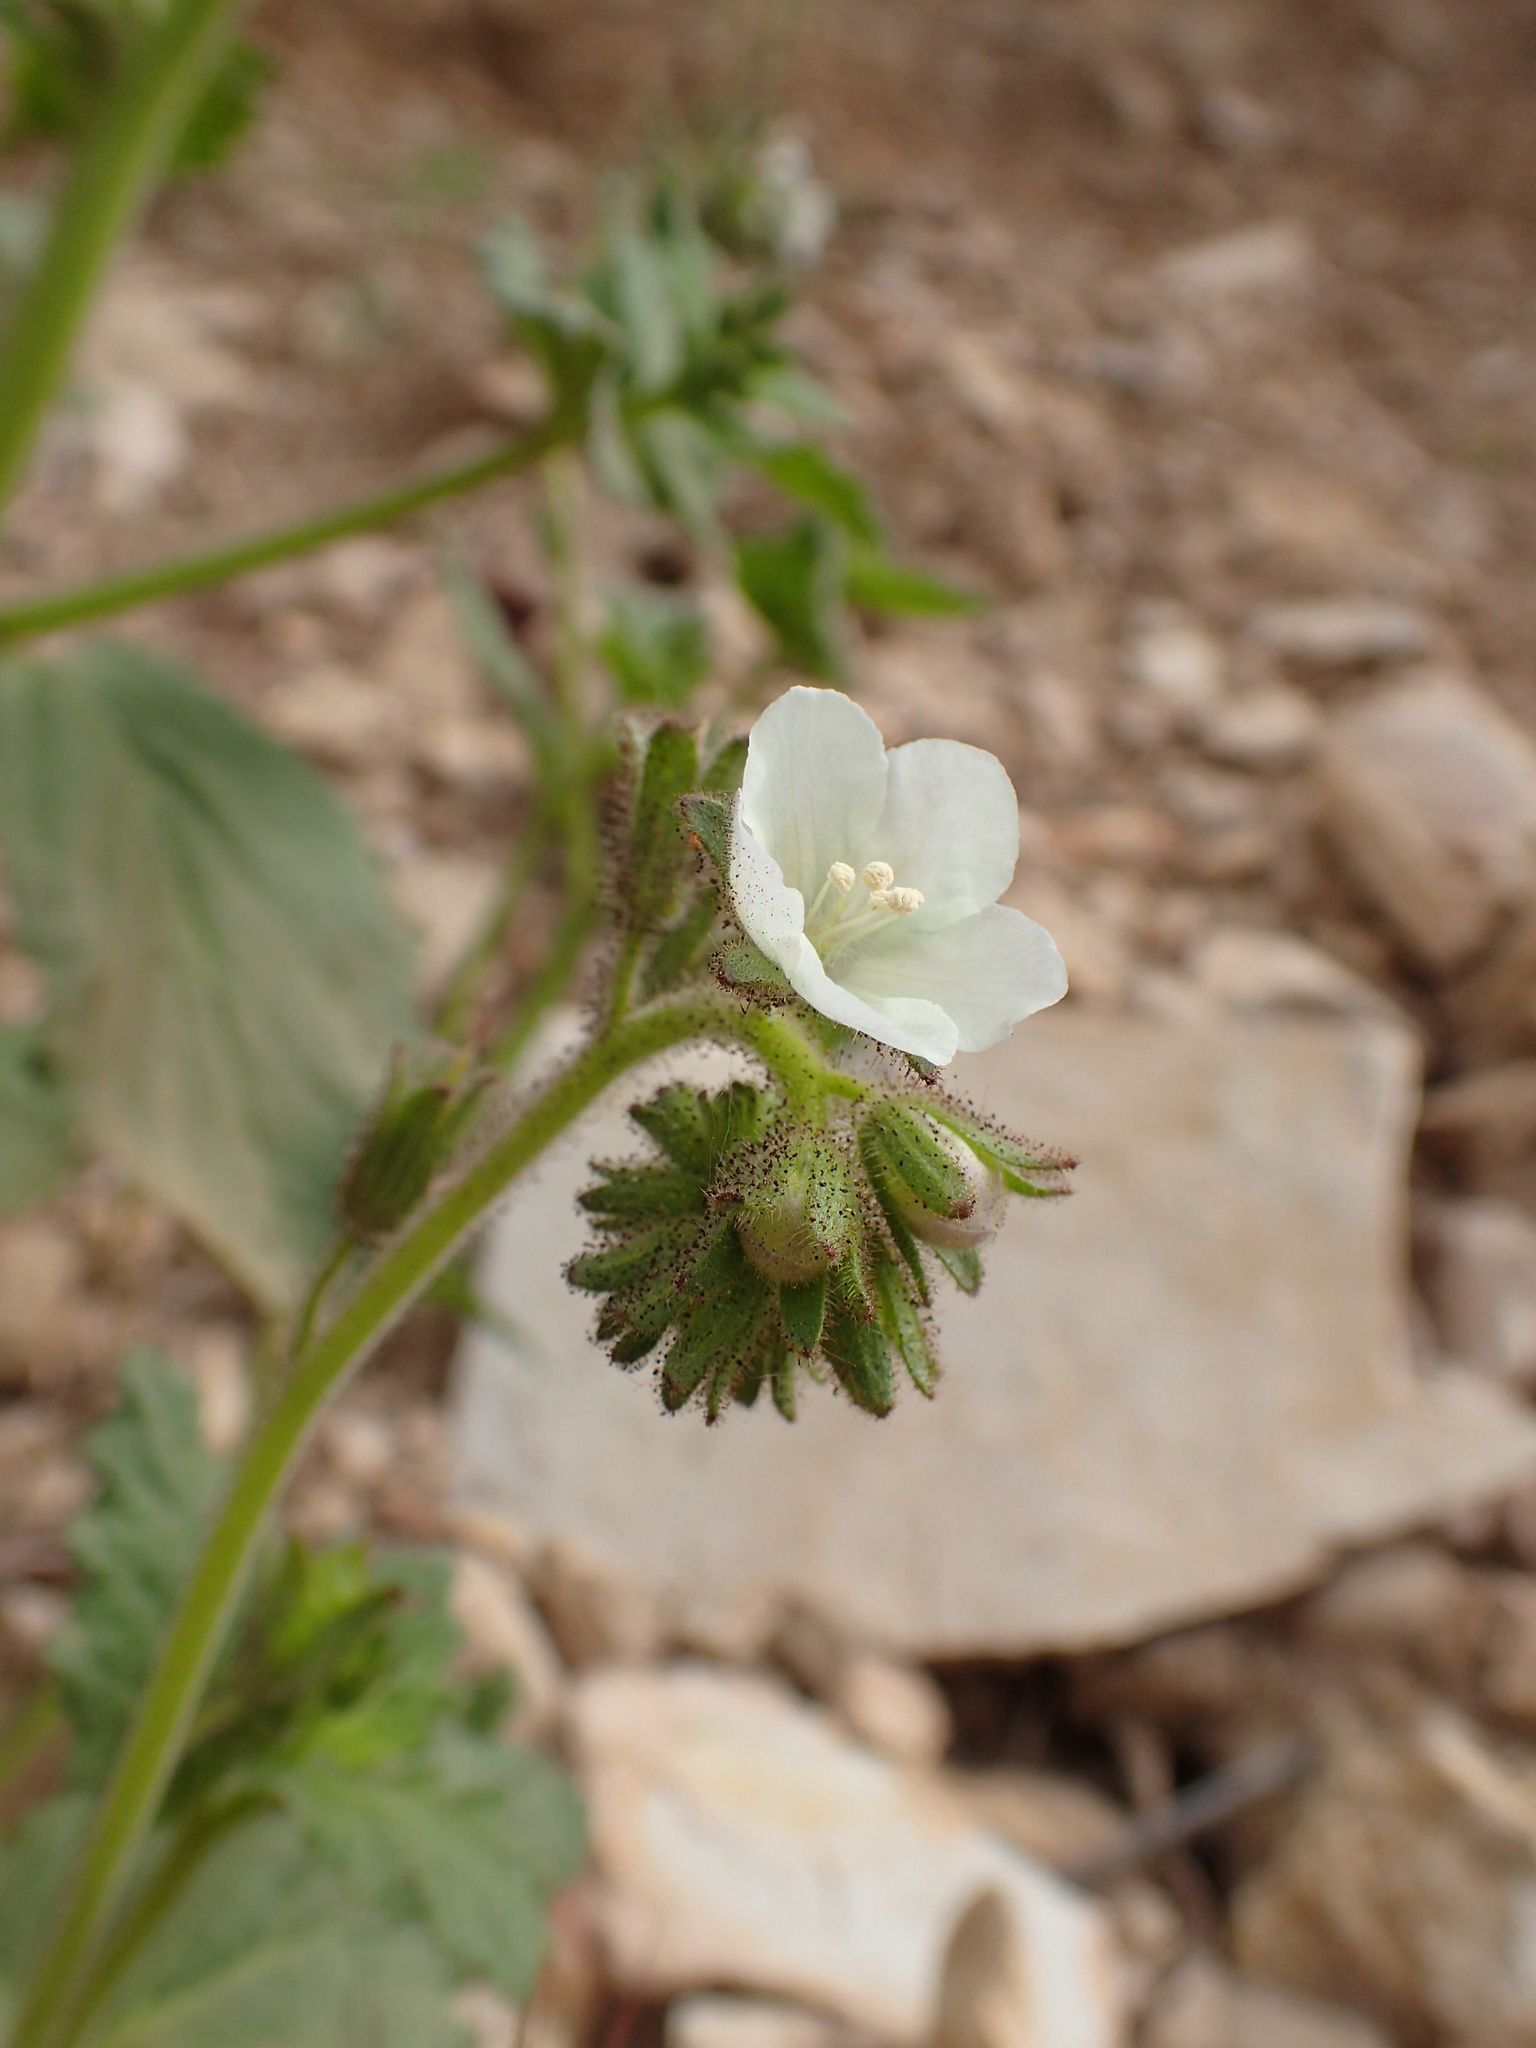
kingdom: Plantae
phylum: Tracheophyta
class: Magnoliopsida
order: Boraginales
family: Hydrophyllaceae
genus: Phacelia
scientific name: Phacelia viscida
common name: Sticky phacelia
